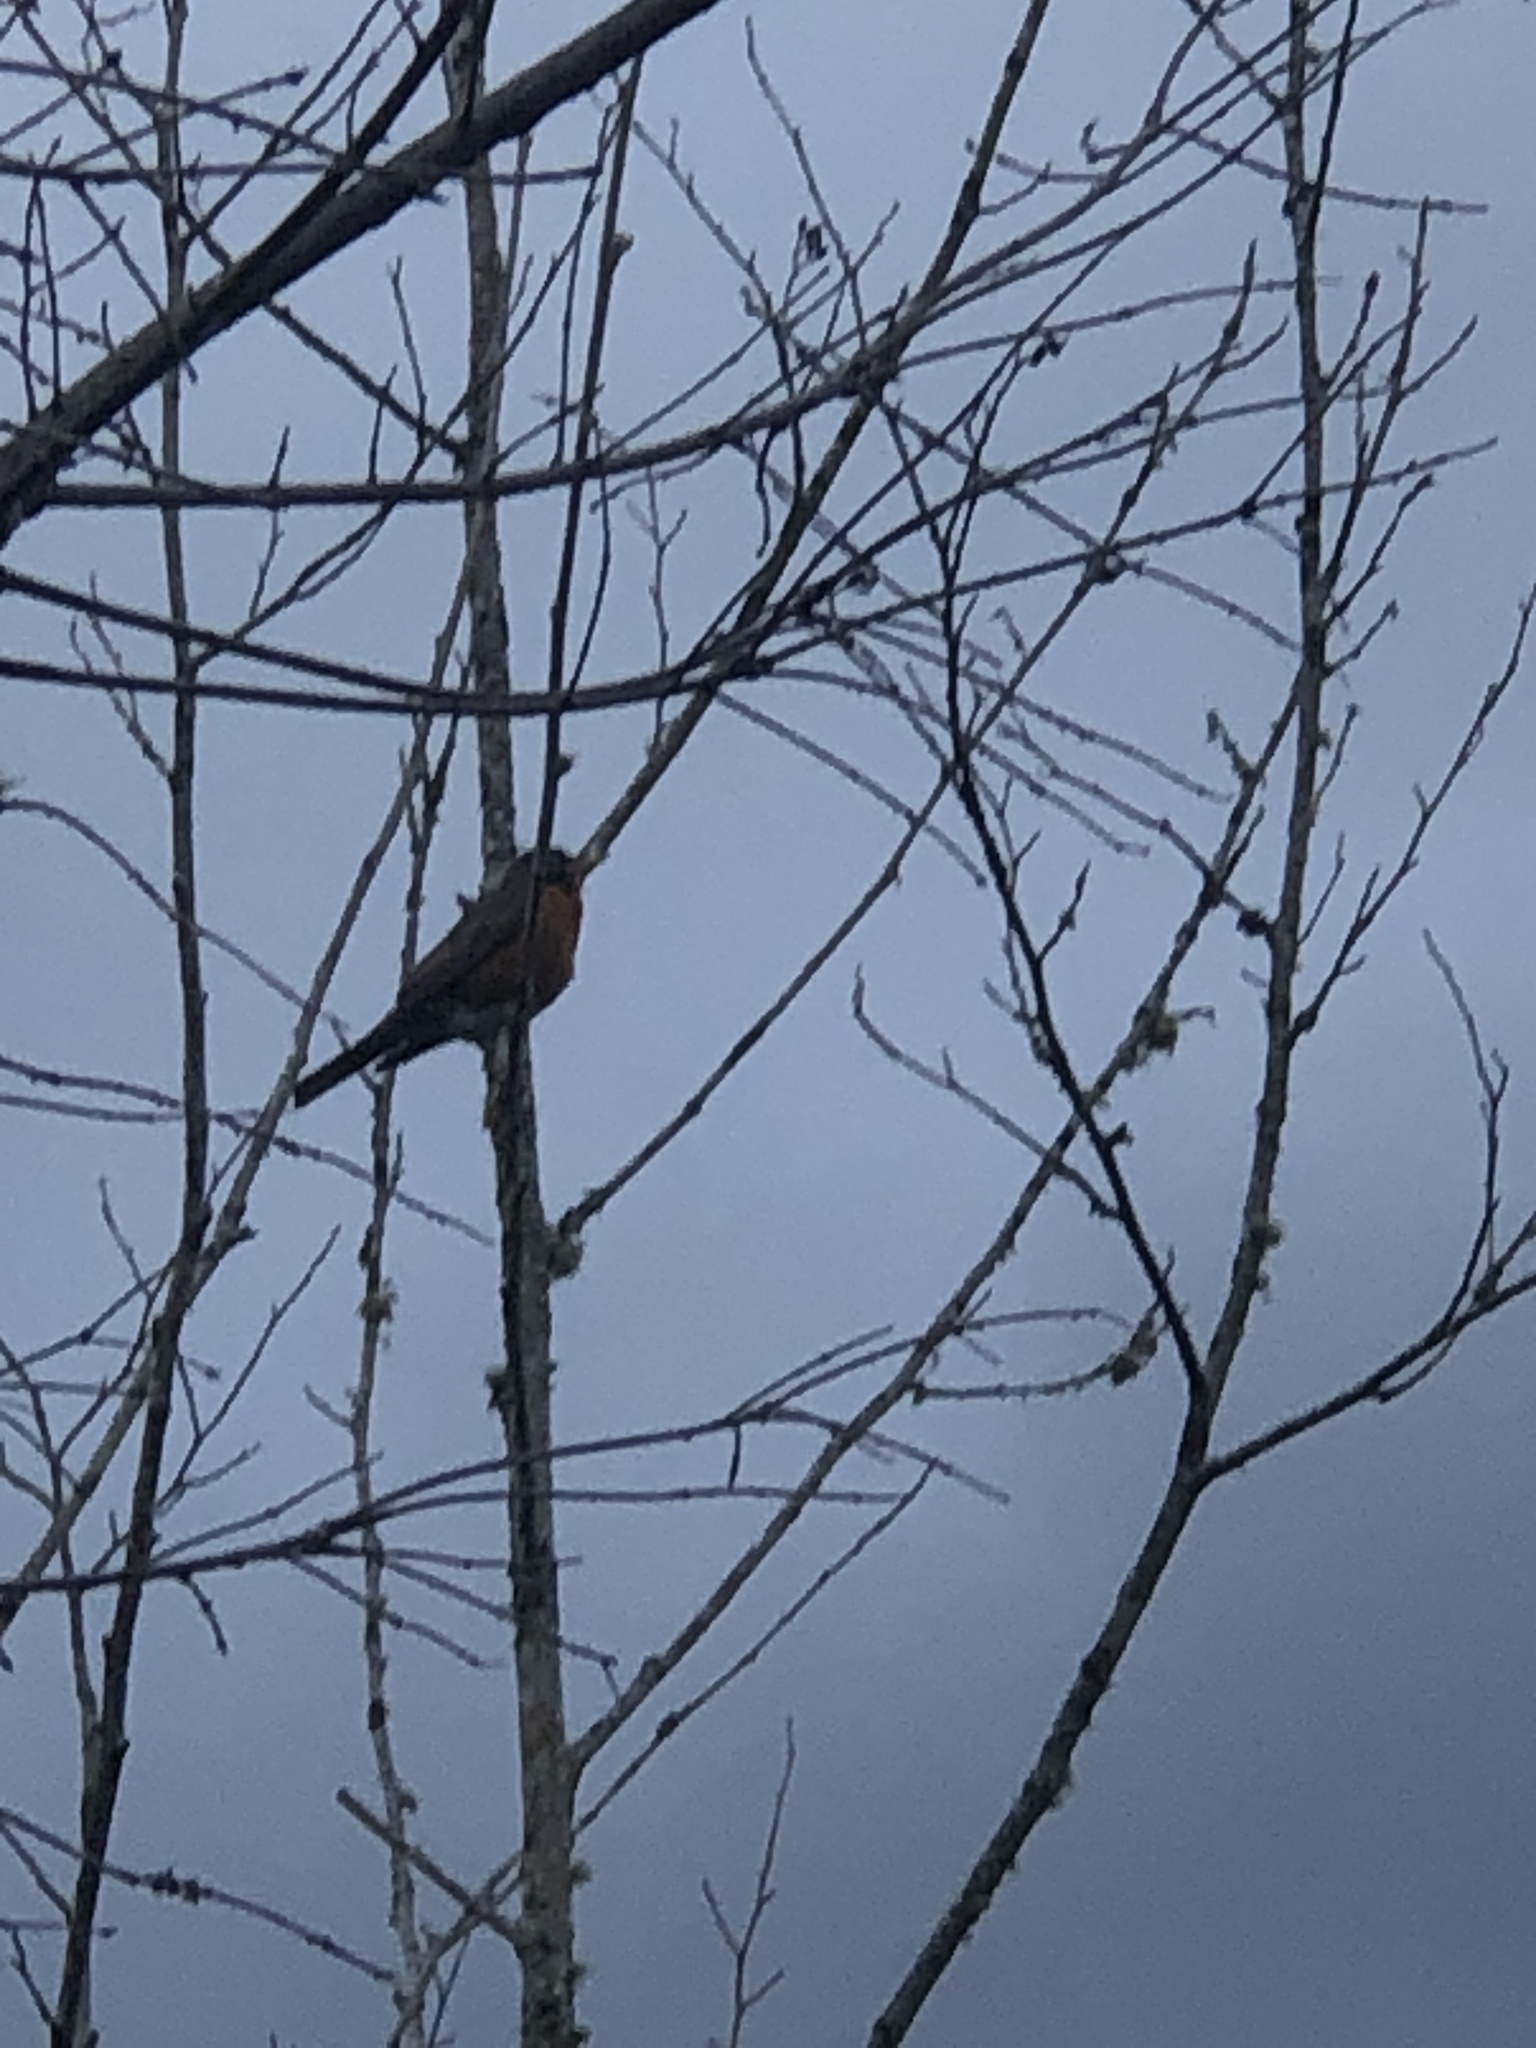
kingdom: Animalia
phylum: Chordata
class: Aves
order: Passeriformes
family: Turdidae
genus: Turdus
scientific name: Turdus migratorius
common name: American robin
